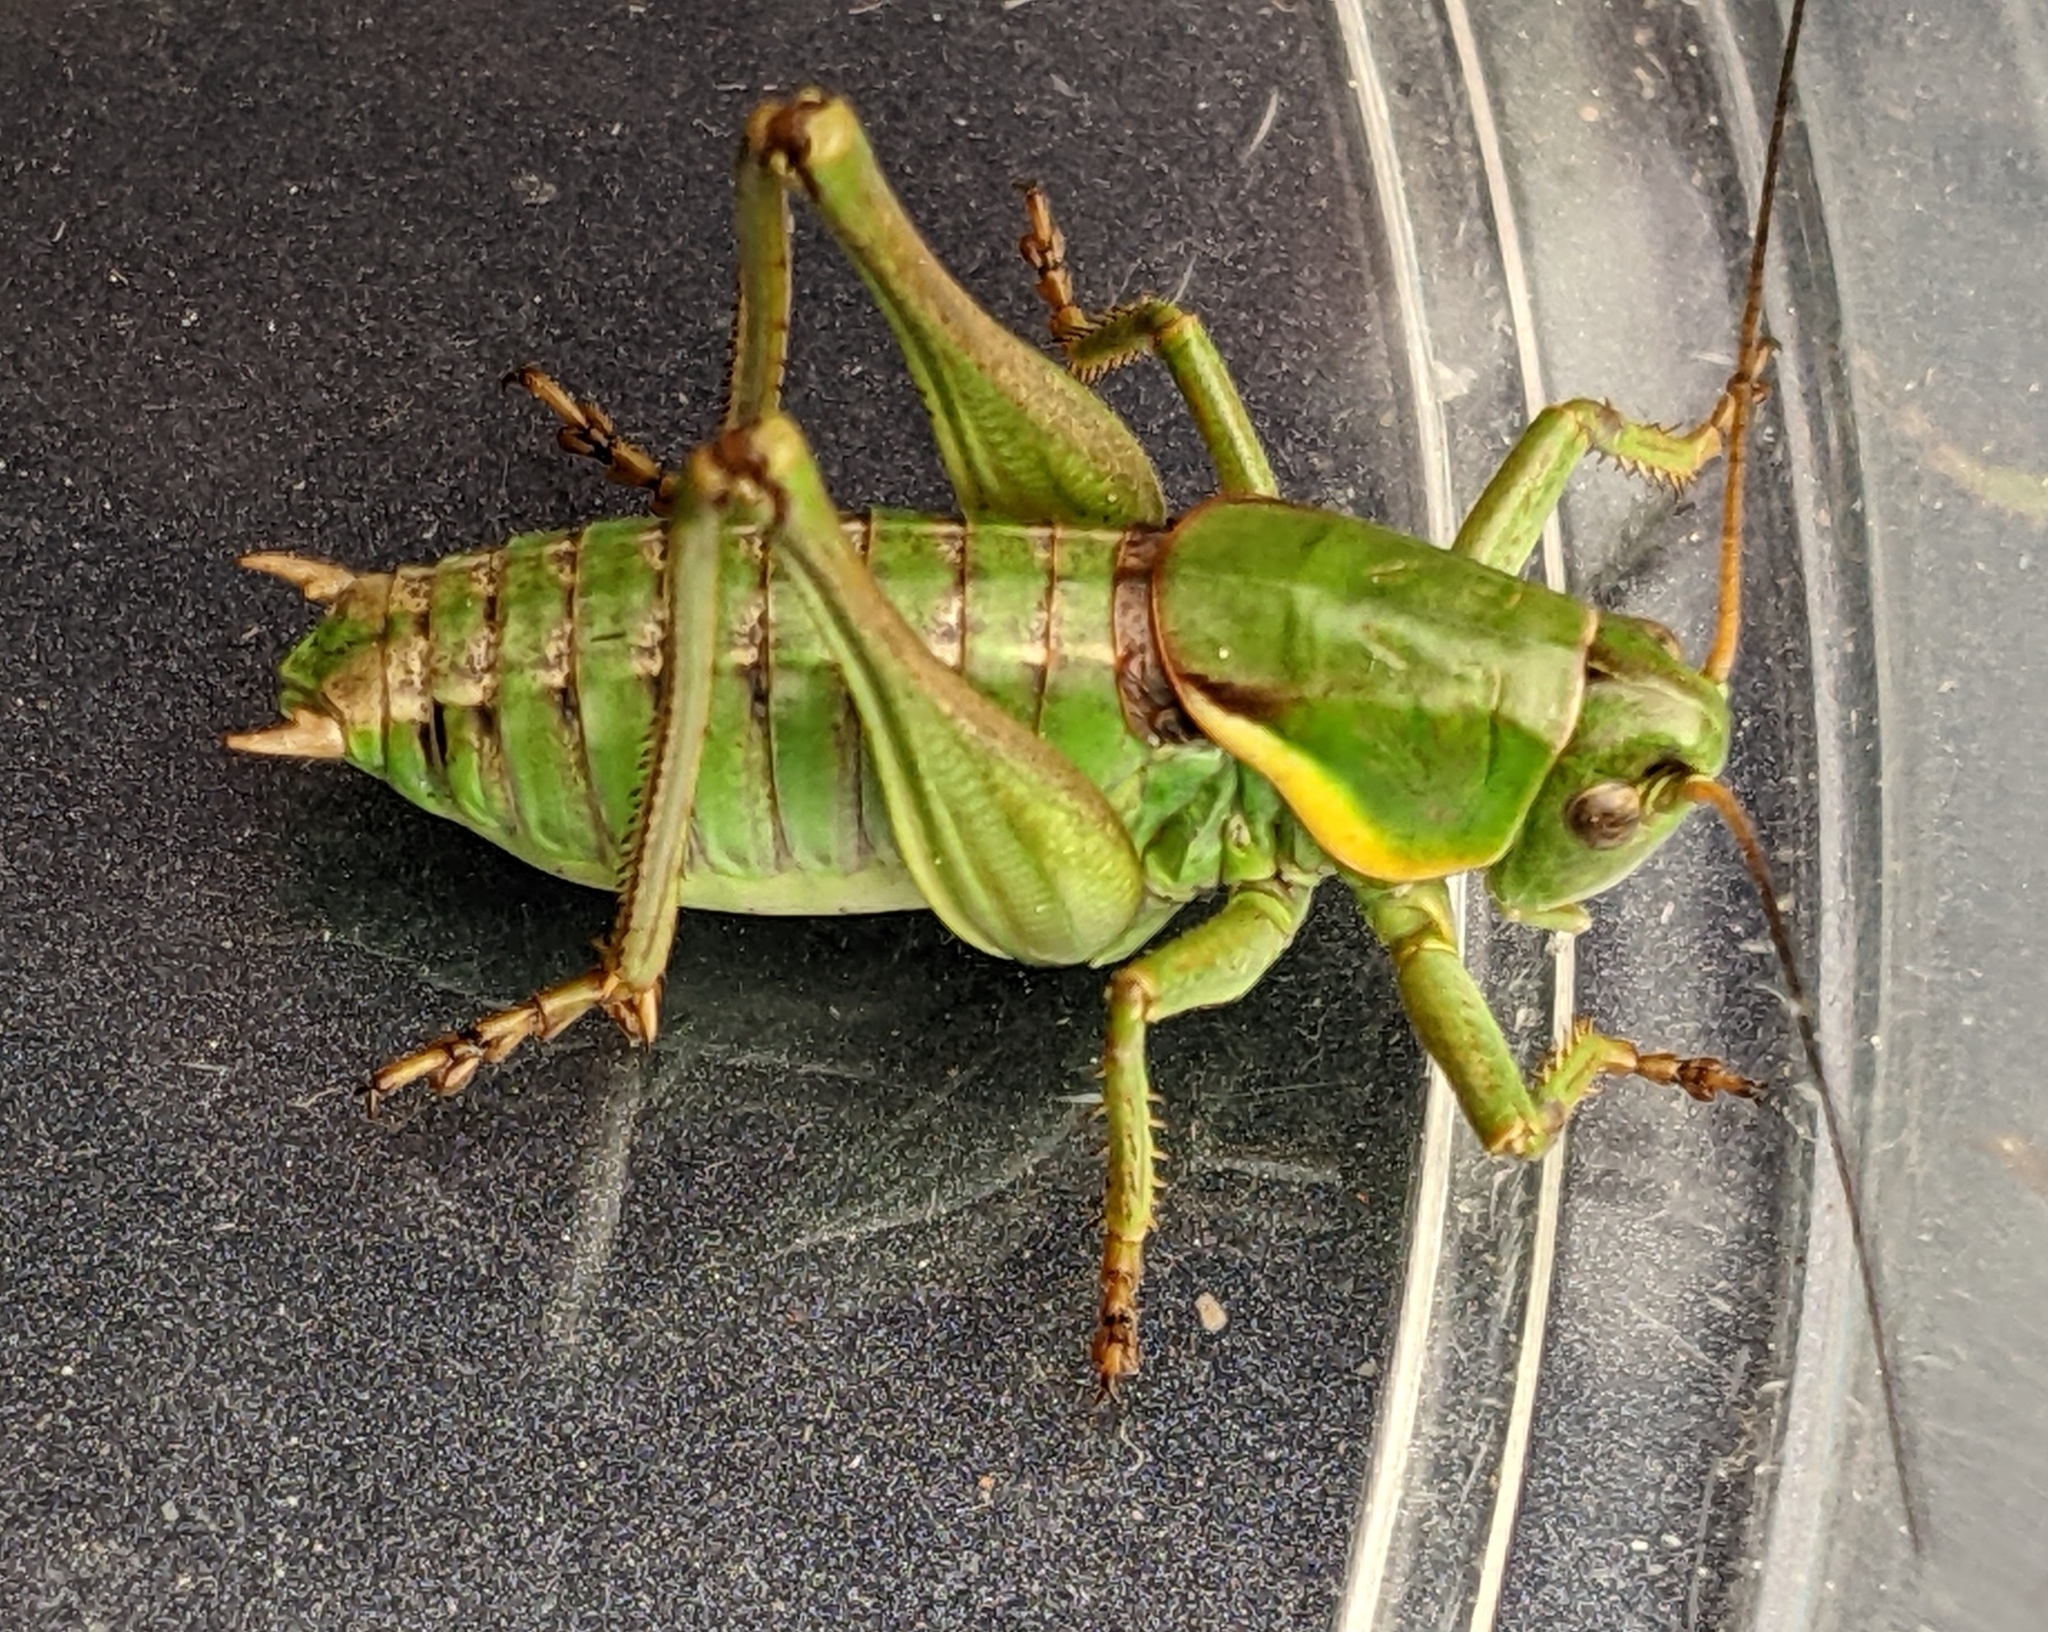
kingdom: Animalia
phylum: Arthropoda
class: Insecta
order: Orthoptera
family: Tettigoniidae
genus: Anabrus
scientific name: Anabrus longipes
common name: Long-legged anabrus
